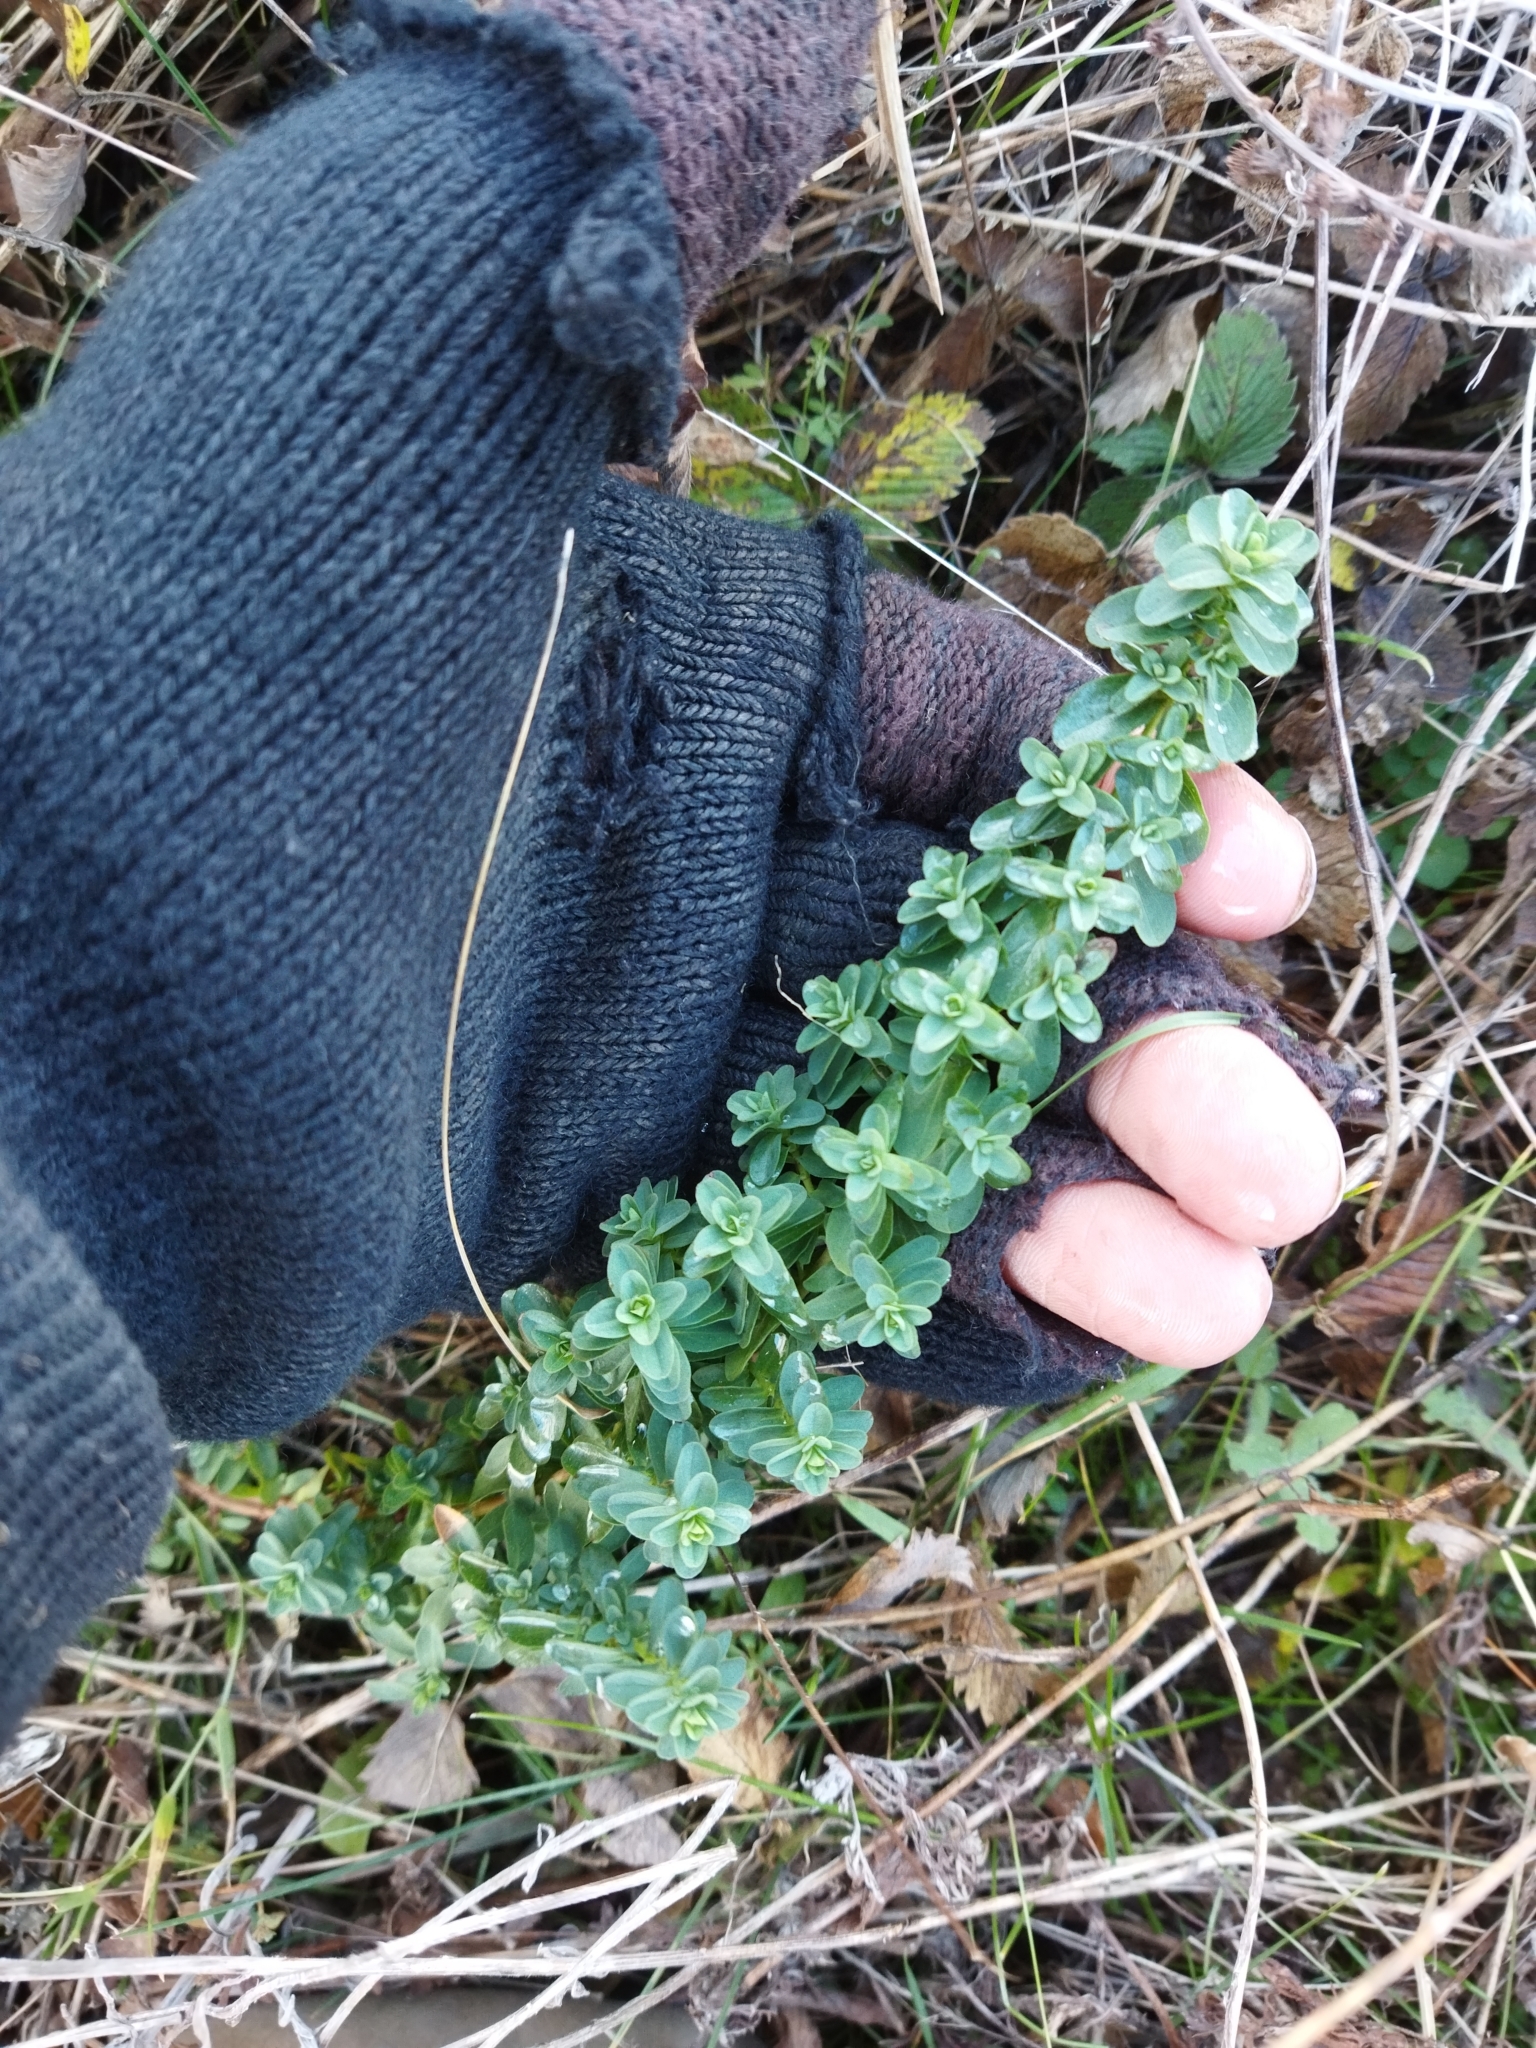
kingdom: Plantae
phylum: Tracheophyta
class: Magnoliopsida
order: Malpighiales
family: Hypericaceae
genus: Hypericum
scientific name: Hypericum perforatum
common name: Common st. johnswort
